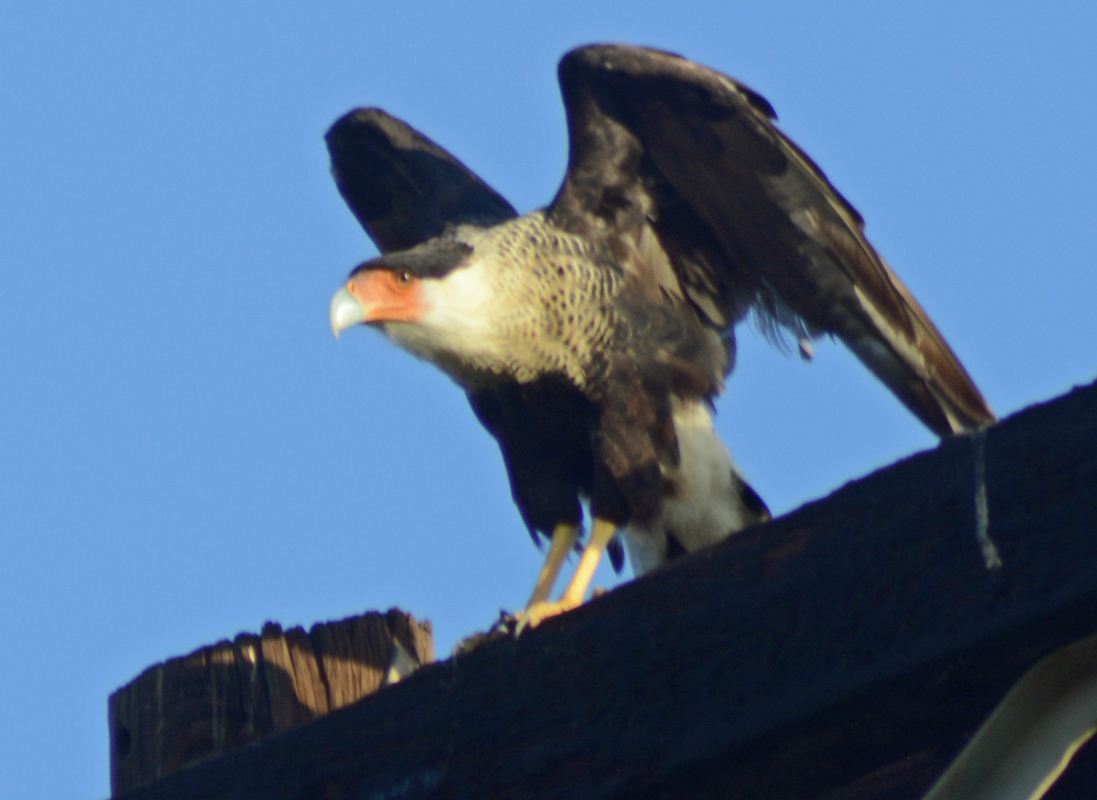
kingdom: Animalia
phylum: Chordata
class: Aves
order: Falconiformes
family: Falconidae
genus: Caracara
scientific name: Caracara plancus
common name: Southern caracara
